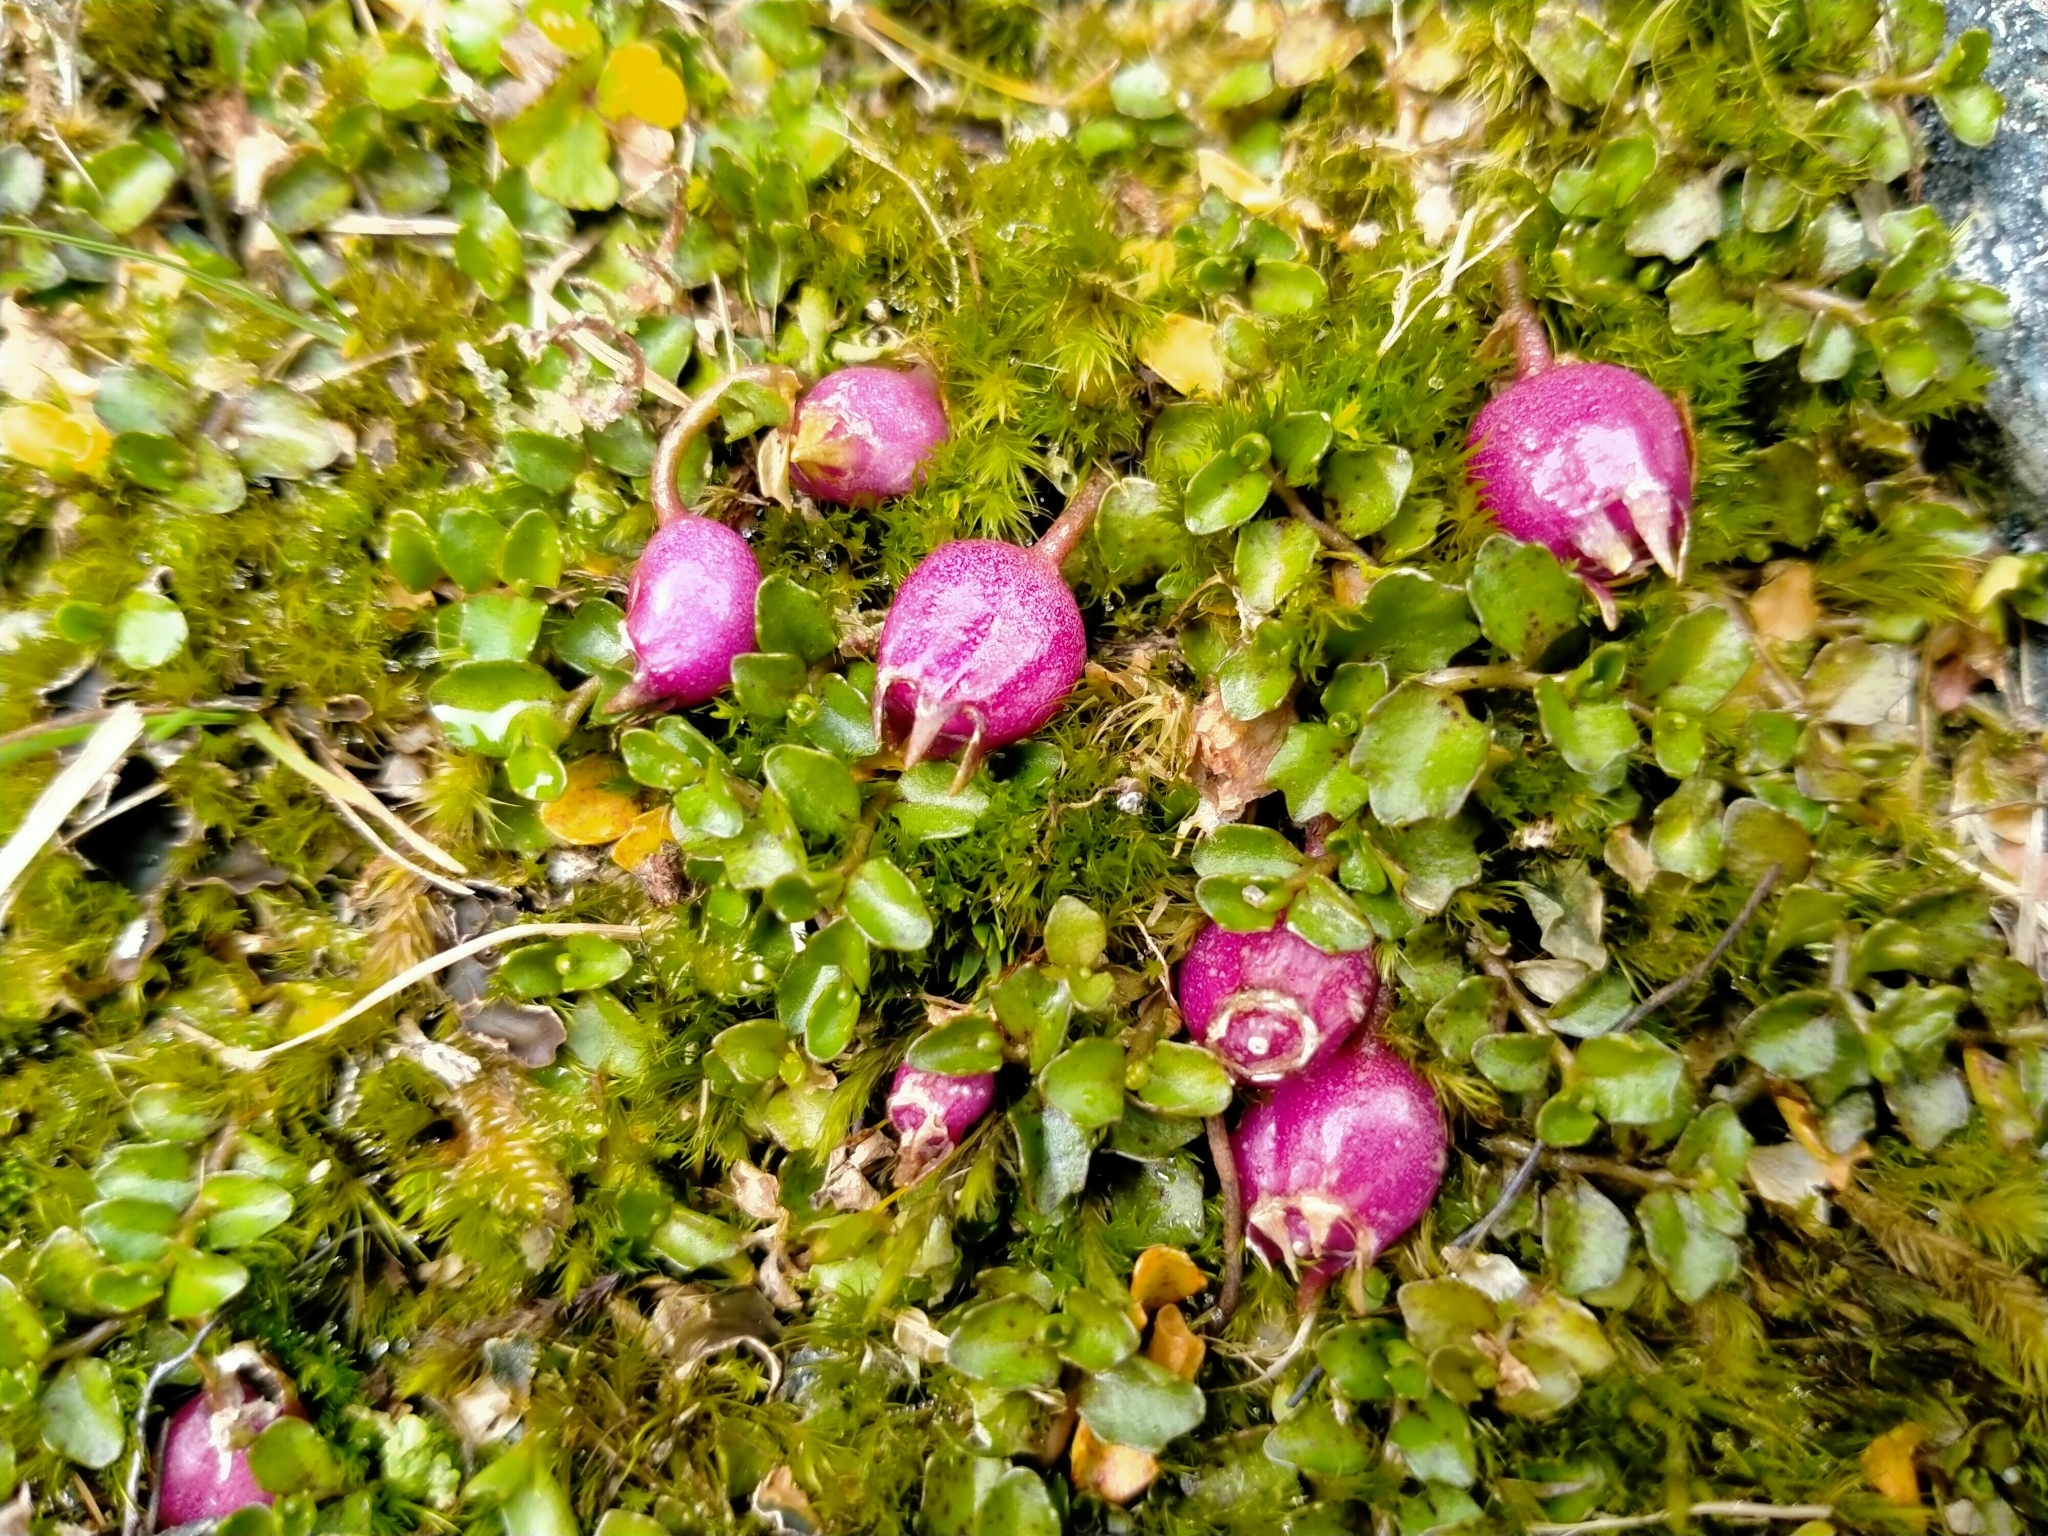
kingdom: Plantae
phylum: Tracheophyta
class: Magnoliopsida
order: Asterales
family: Campanulaceae
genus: Lobelia
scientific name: Lobelia angulata
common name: Lawn lobelia
